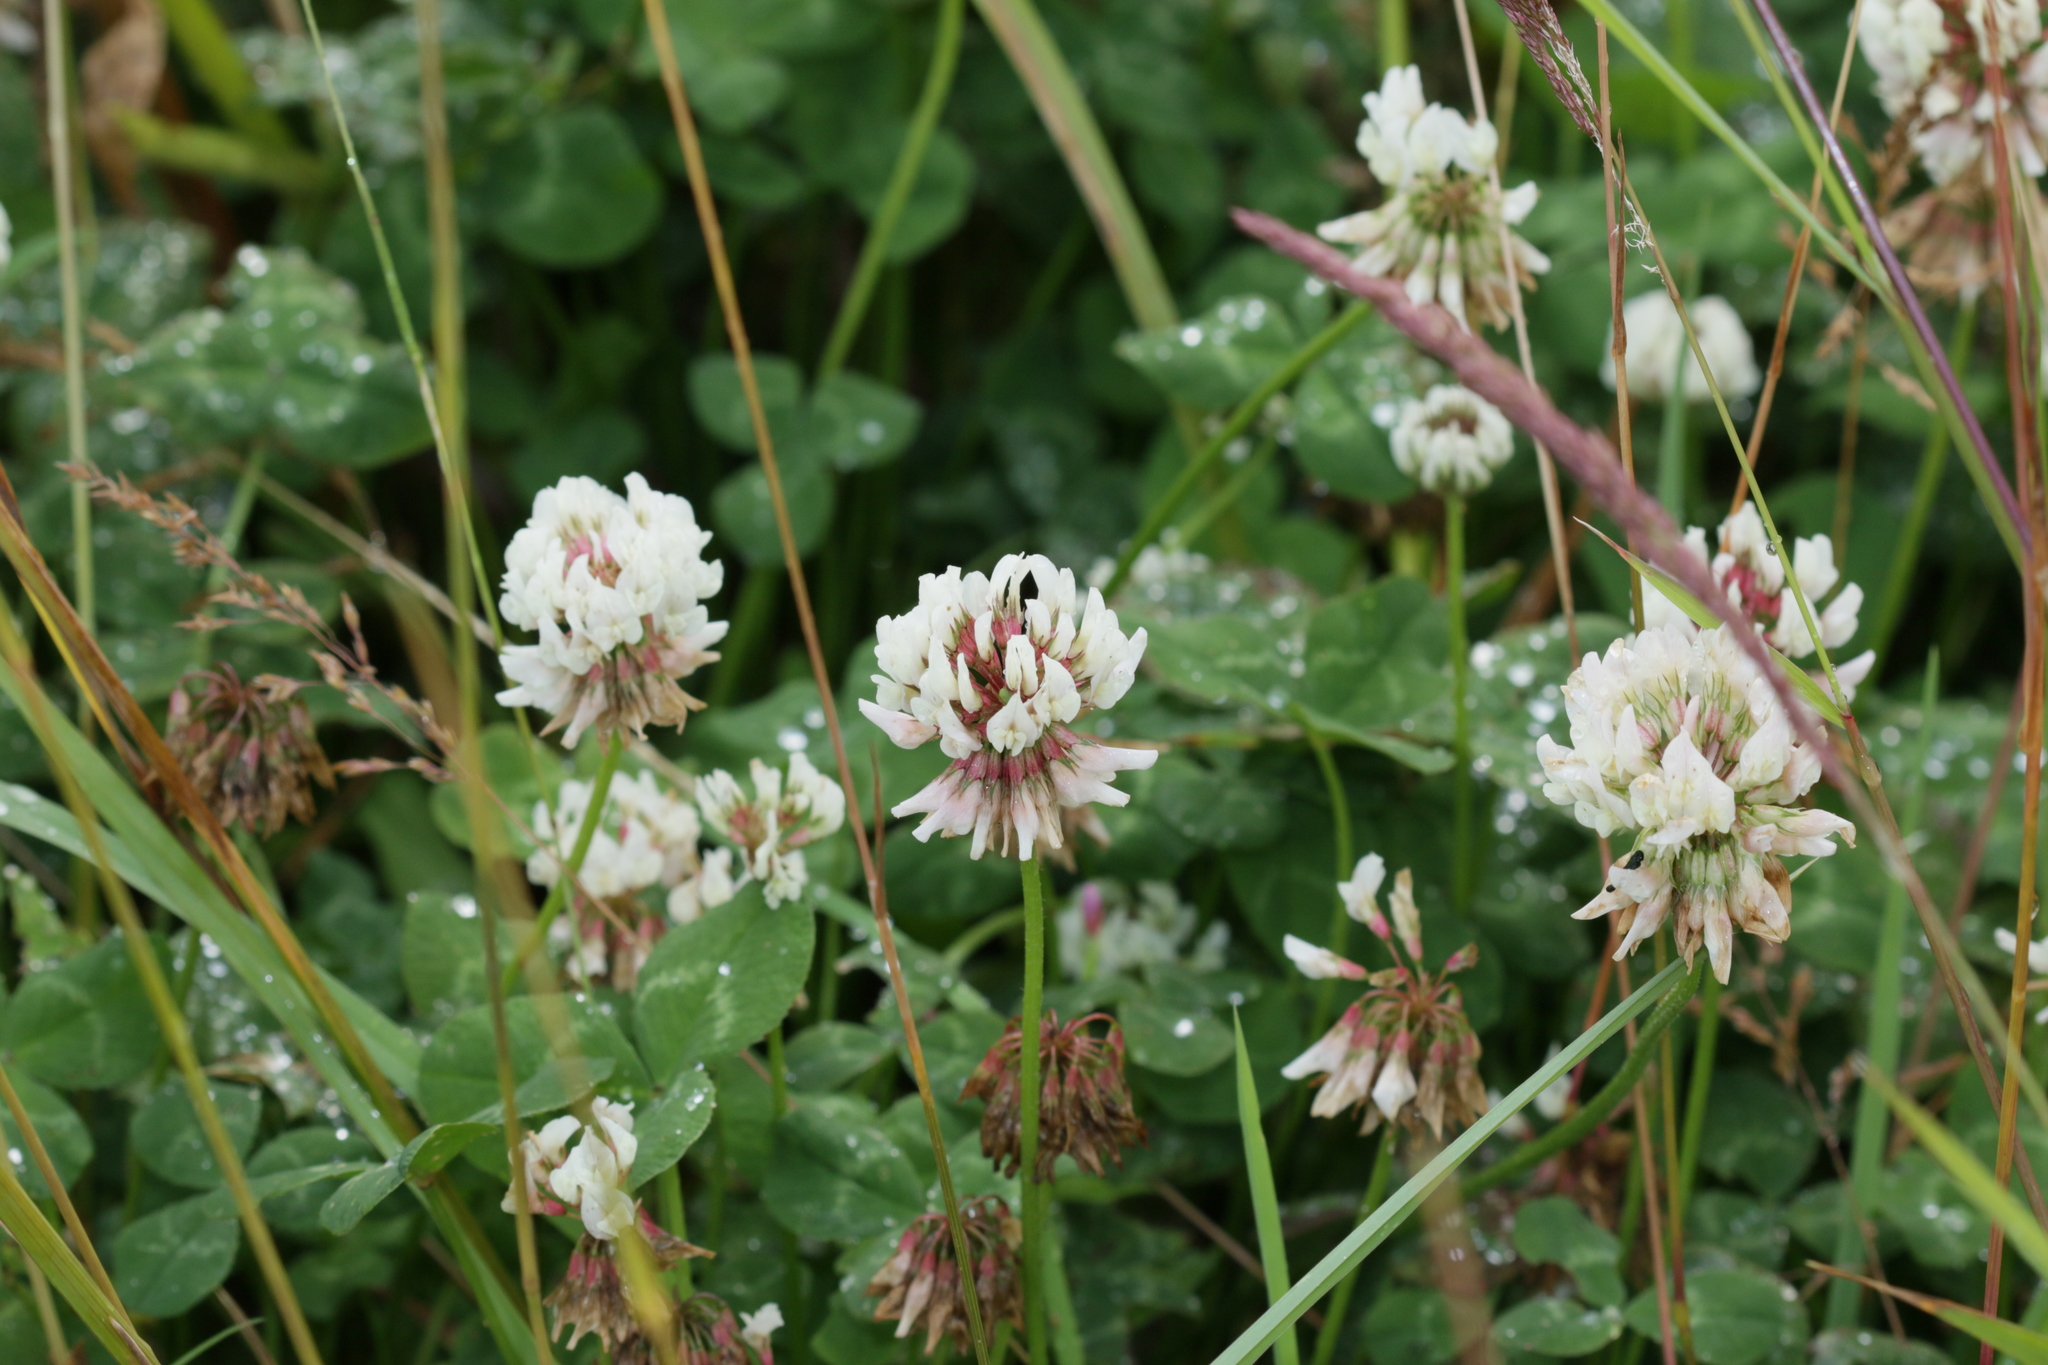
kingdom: Plantae
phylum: Tracheophyta
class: Magnoliopsida
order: Fabales
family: Fabaceae
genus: Trifolium
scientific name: Trifolium repens
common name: White clover
